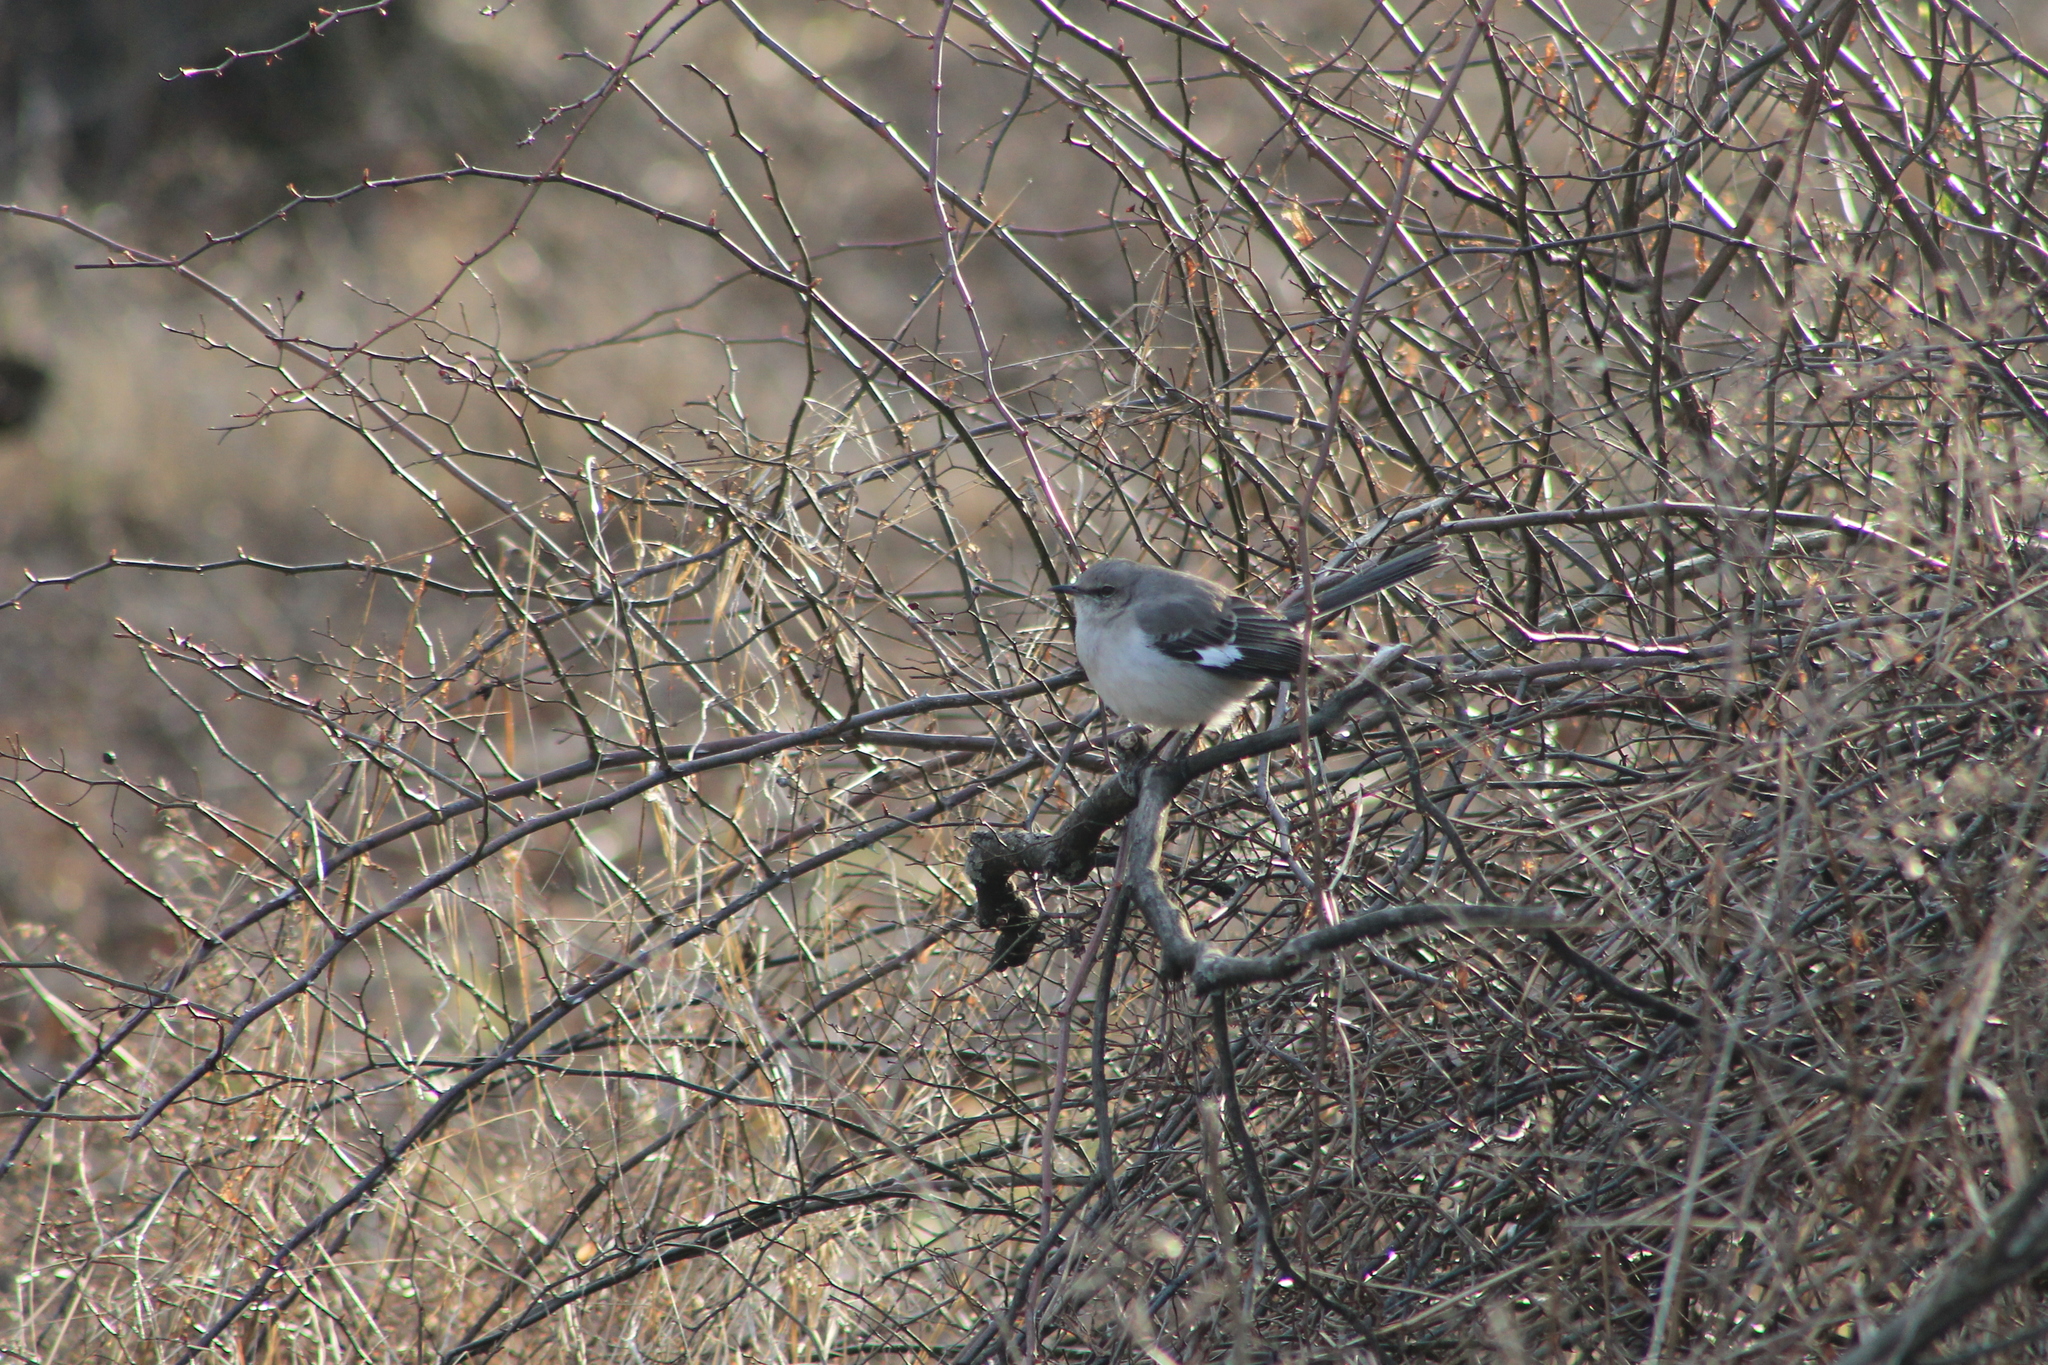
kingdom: Animalia
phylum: Chordata
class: Aves
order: Passeriformes
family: Mimidae
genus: Mimus
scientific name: Mimus polyglottos
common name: Northern mockingbird
